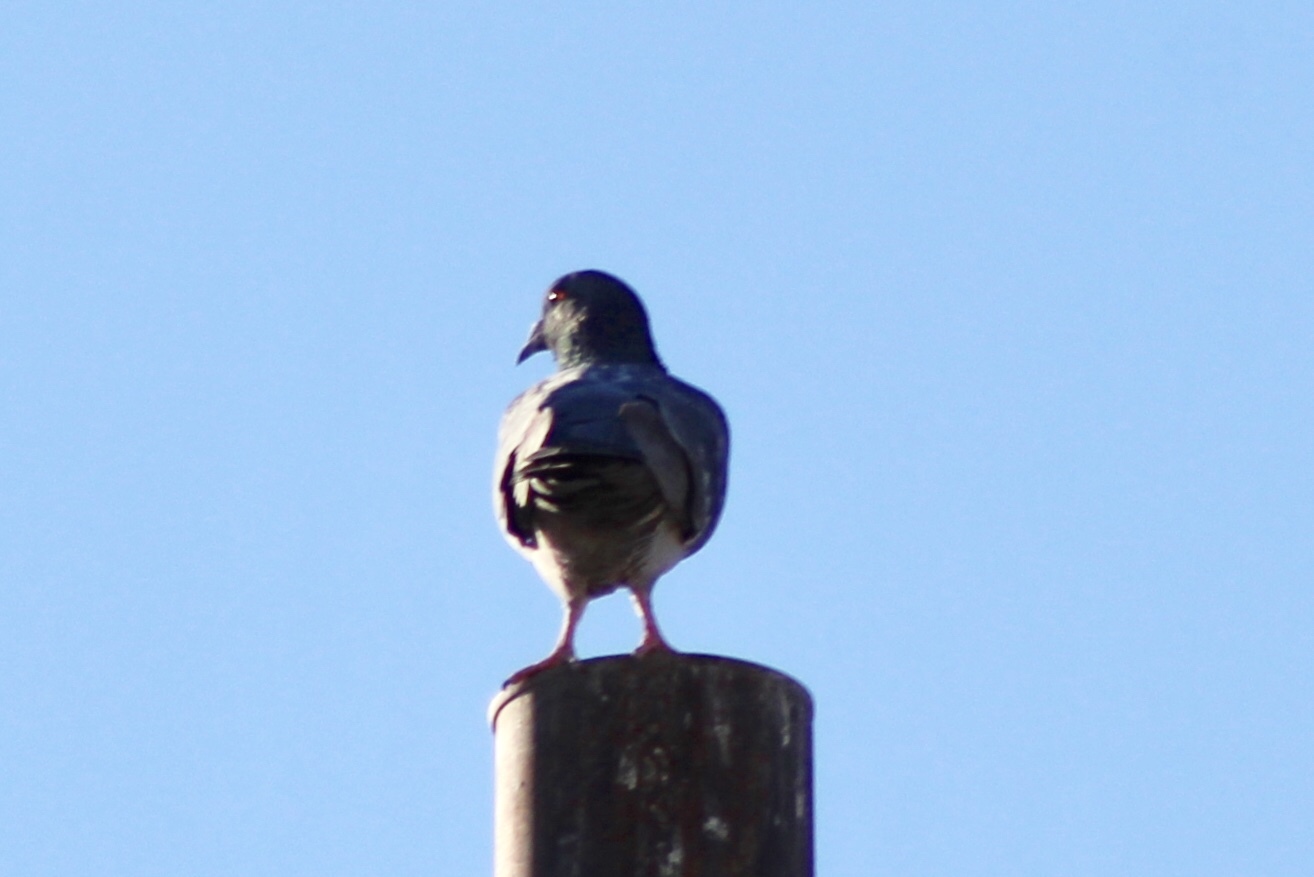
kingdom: Animalia
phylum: Chordata
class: Aves
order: Columbiformes
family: Columbidae
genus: Columba
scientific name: Columba livia
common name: Rock pigeon
